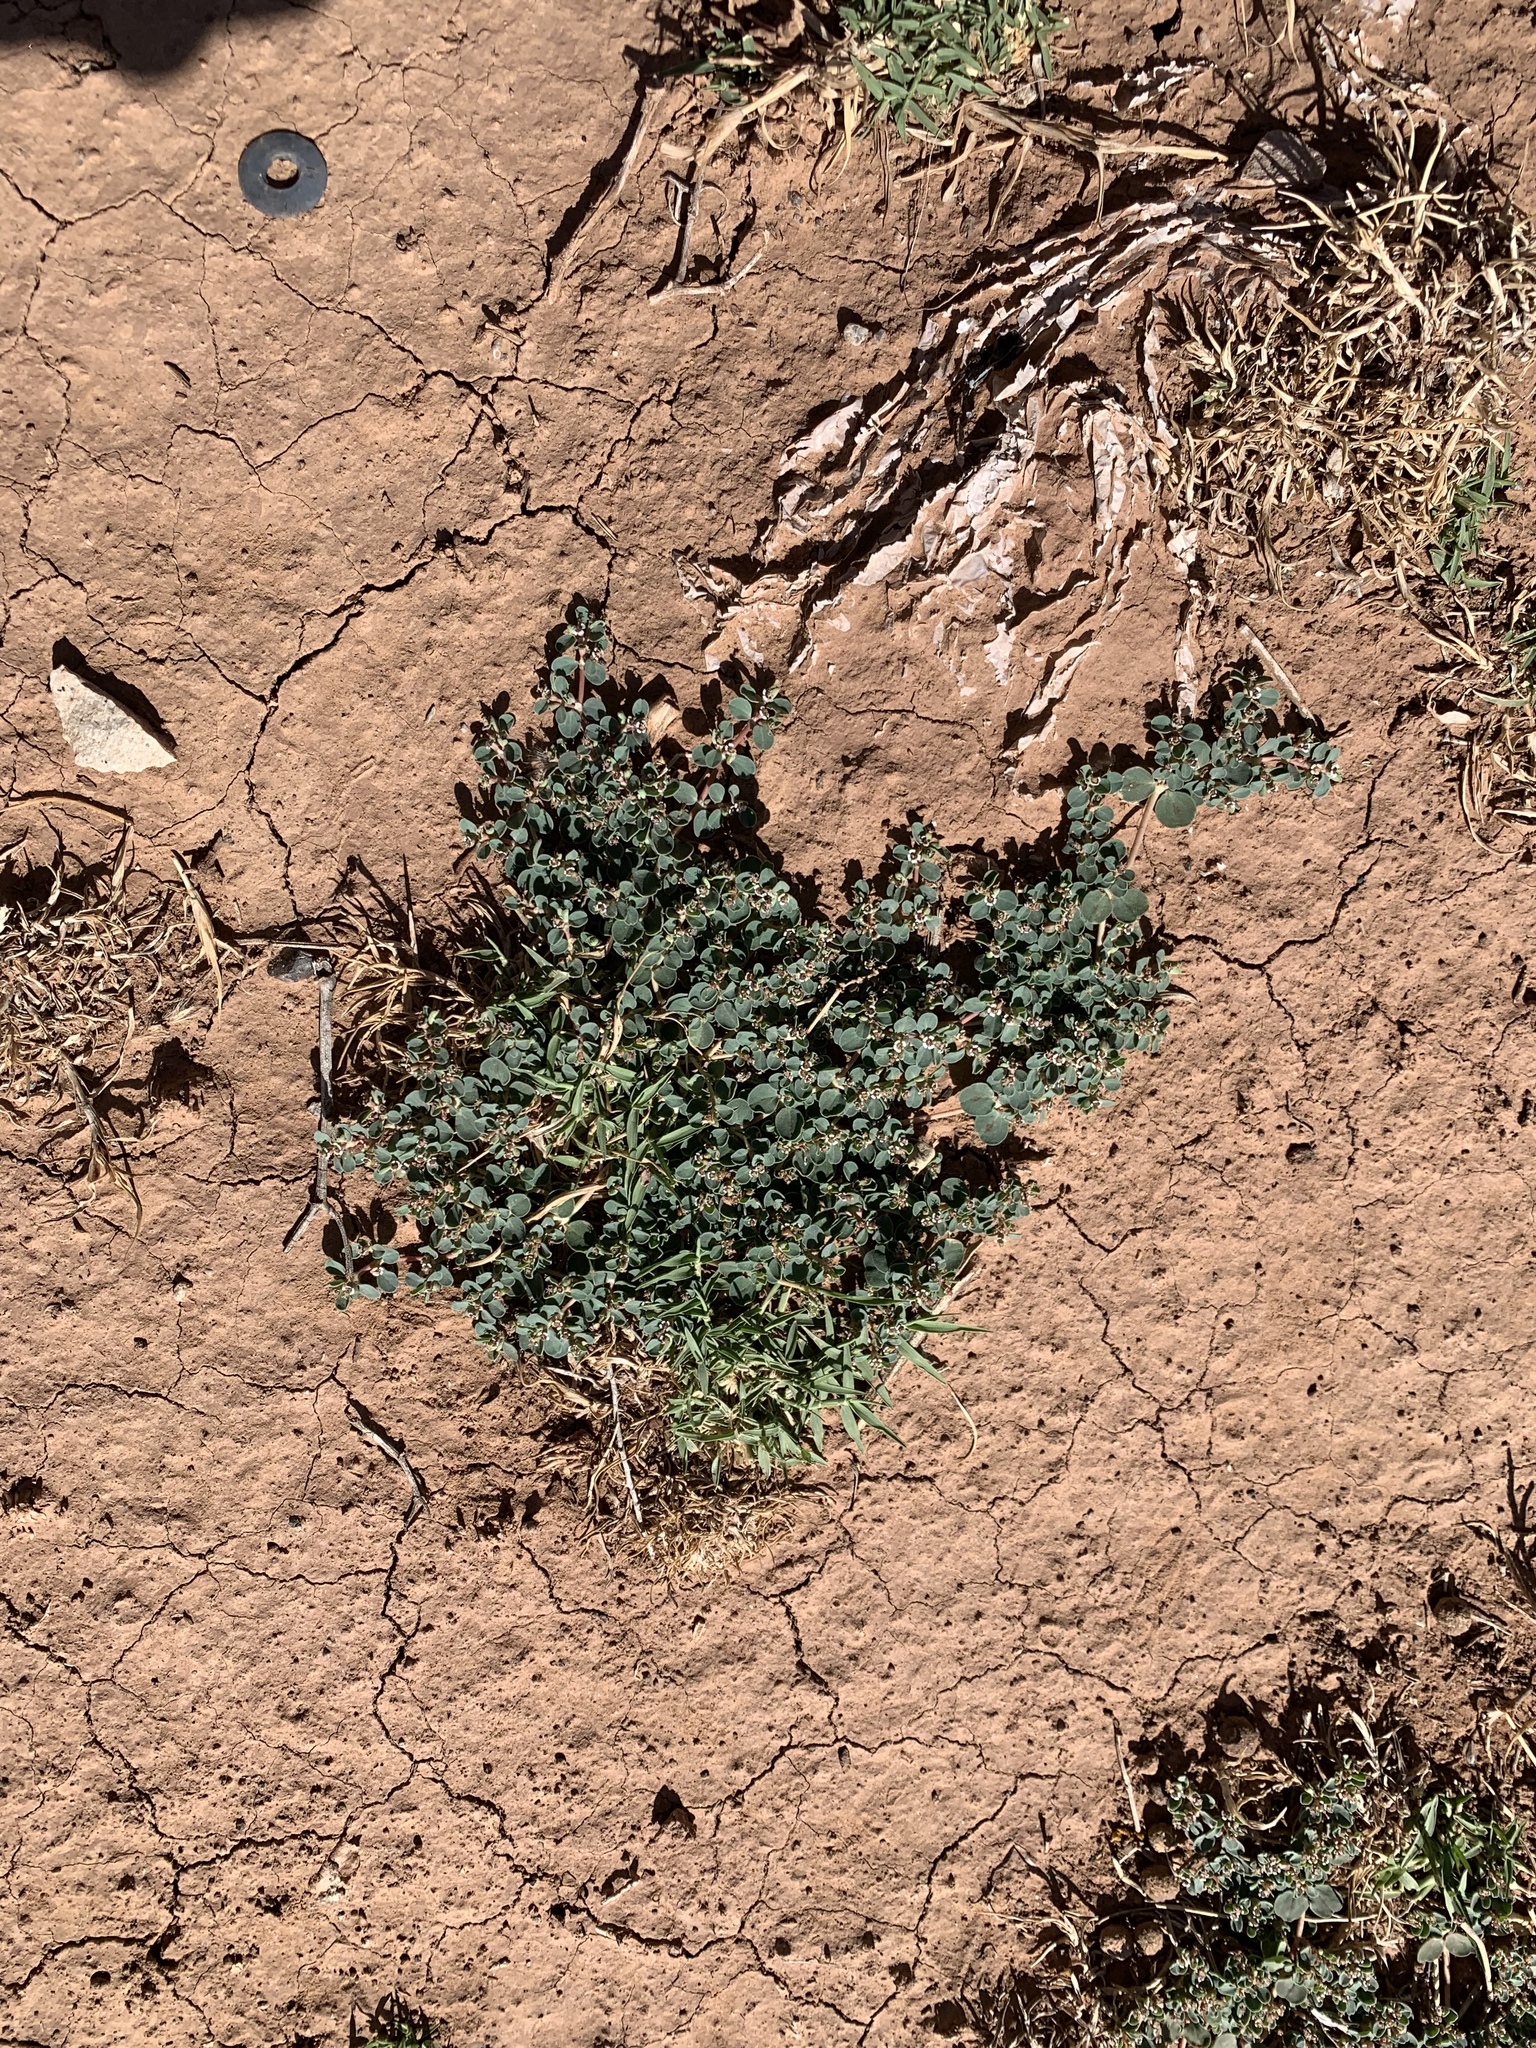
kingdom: Plantae
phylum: Tracheophyta
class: Magnoliopsida
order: Malpighiales
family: Euphorbiaceae
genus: Euphorbia
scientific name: Euphorbia albomarginata
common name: Whitemargin sandmat
